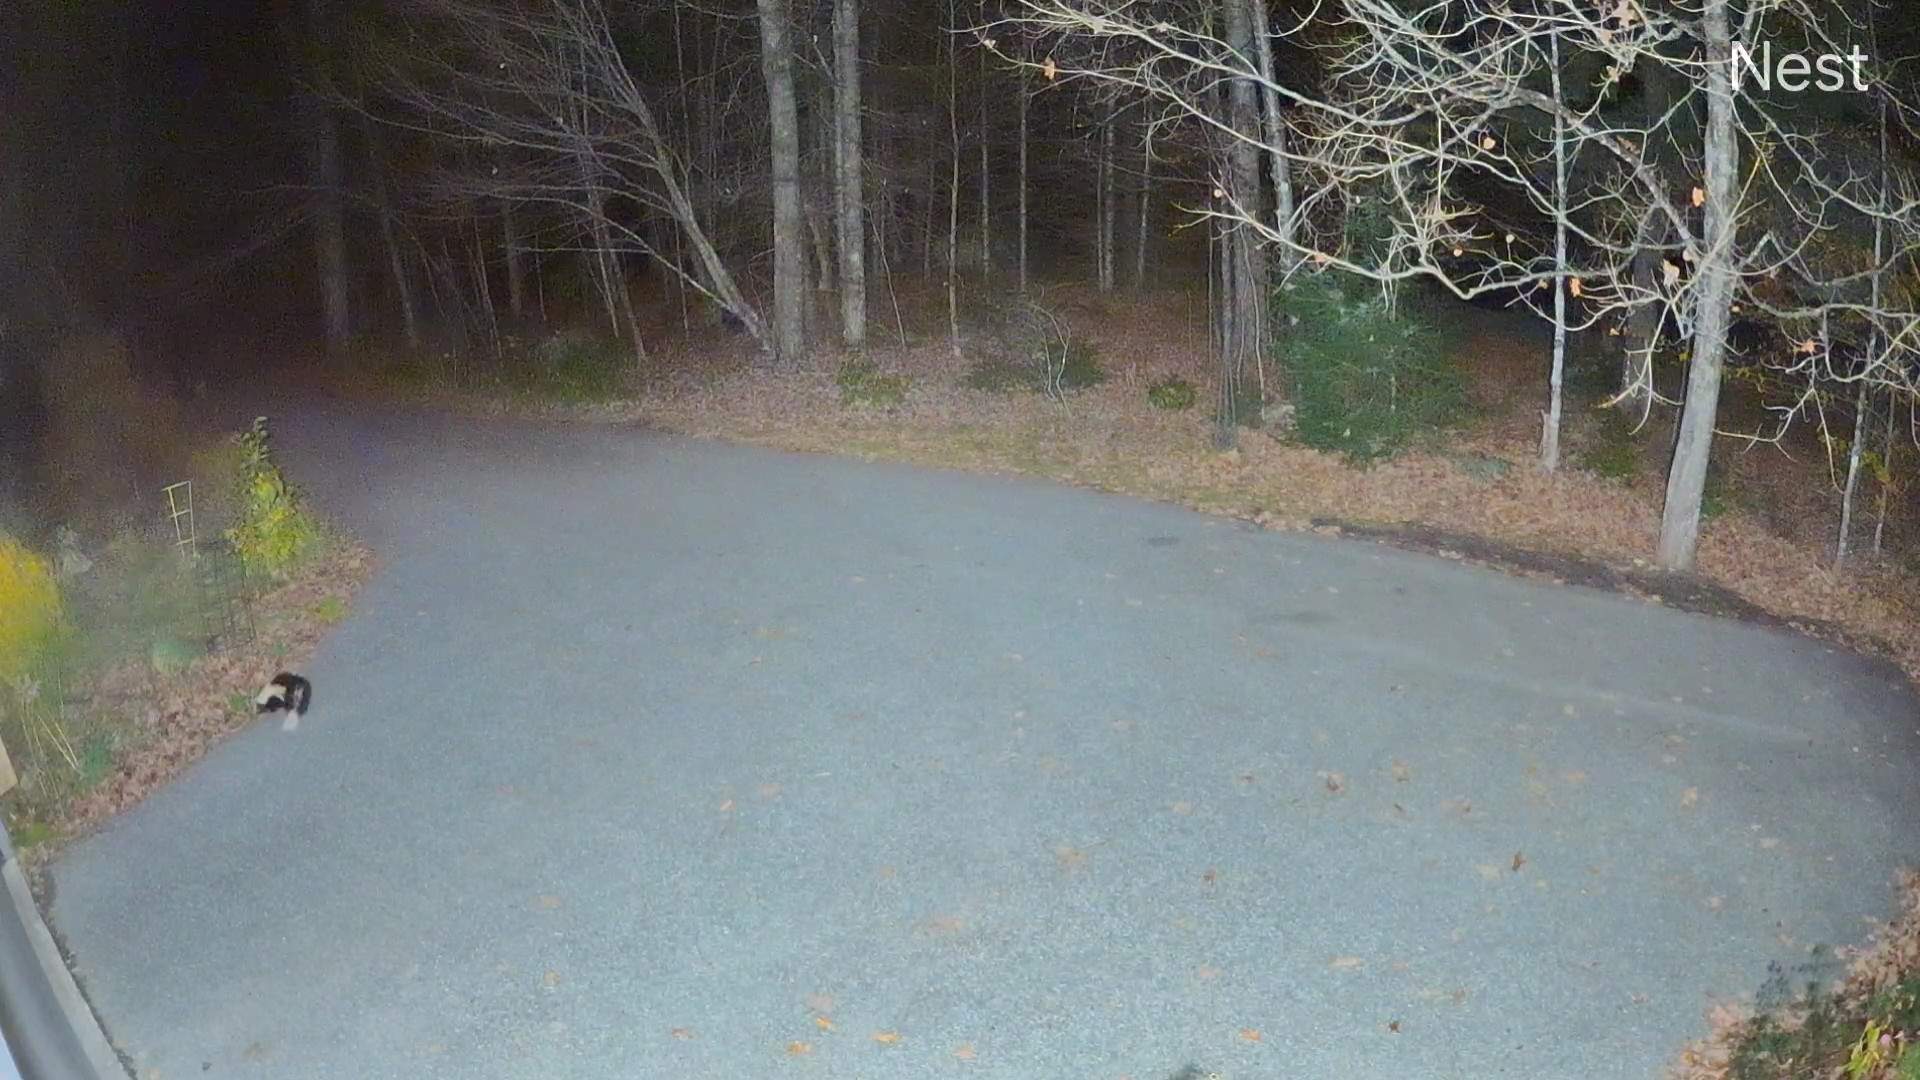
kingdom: Animalia
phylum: Chordata
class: Mammalia
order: Carnivora
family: Mephitidae
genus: Mephitis
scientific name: Mephitis mephitis
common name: Striped skunk
